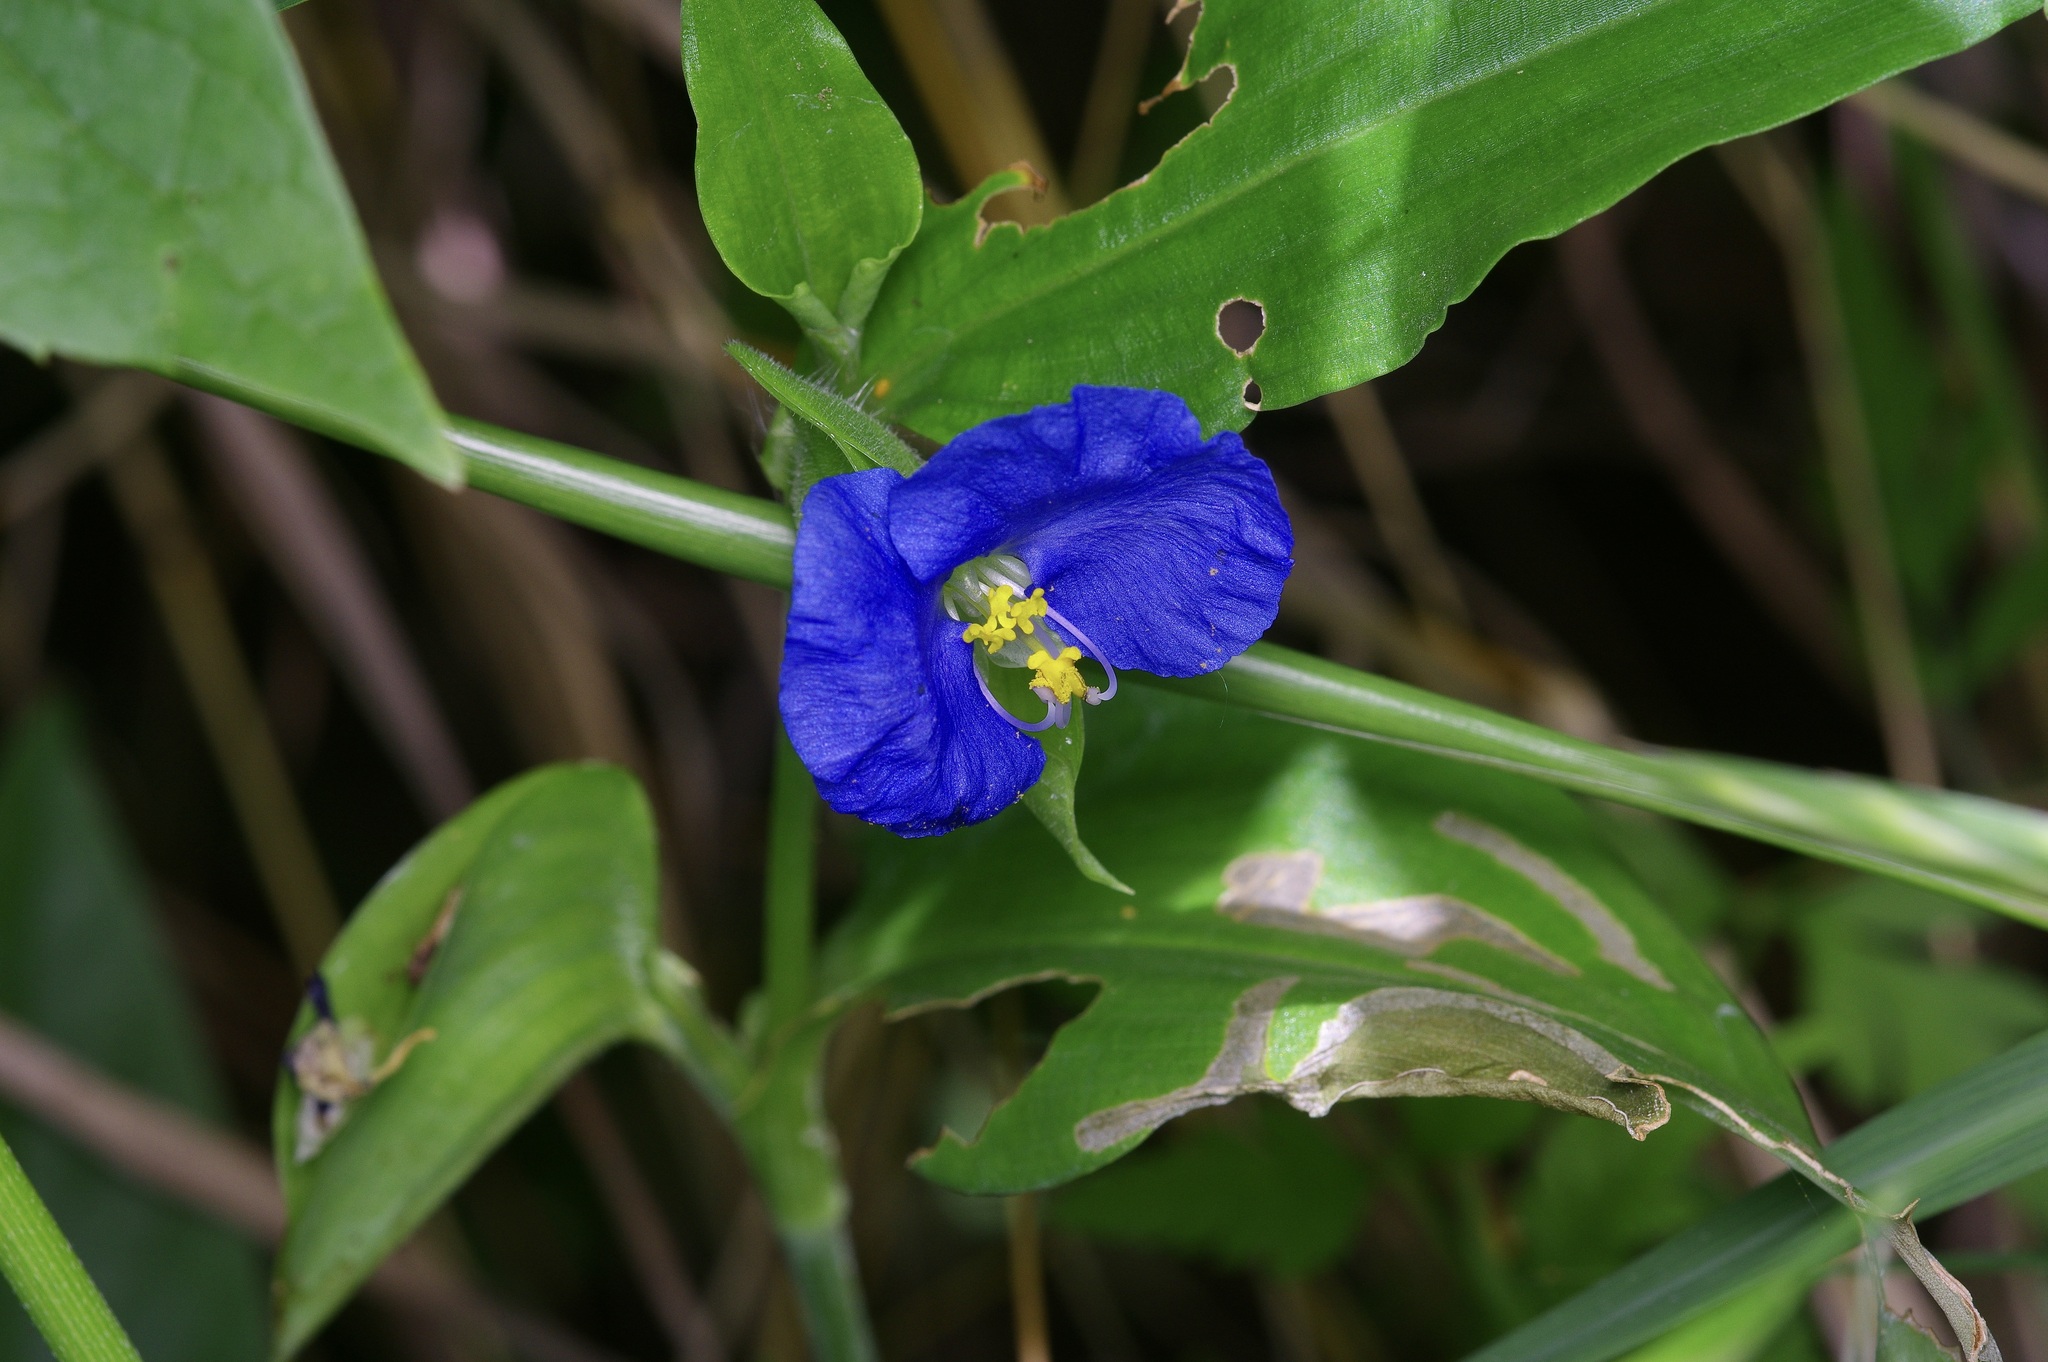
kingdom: Plantae
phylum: Tracheophyta
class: Liliopsida
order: Commelinales
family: Commelinaceae
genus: Commelina
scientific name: Commelina erecta
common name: Blousel blommetjie
